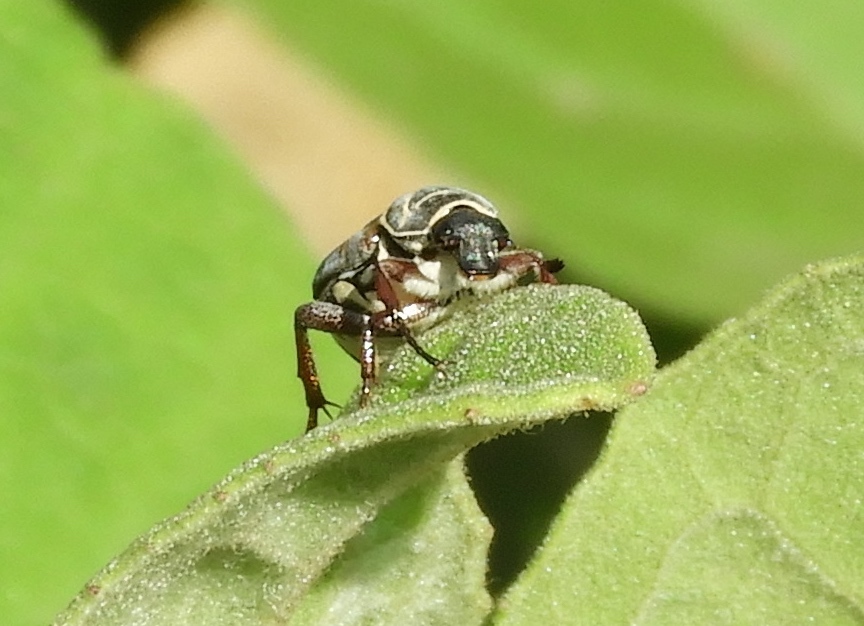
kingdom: Animalia
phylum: Arthropoda
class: Insecta
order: Coleoptera
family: Scarabaeidae
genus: Trigonopeltastes
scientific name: Trigonopeltastes
